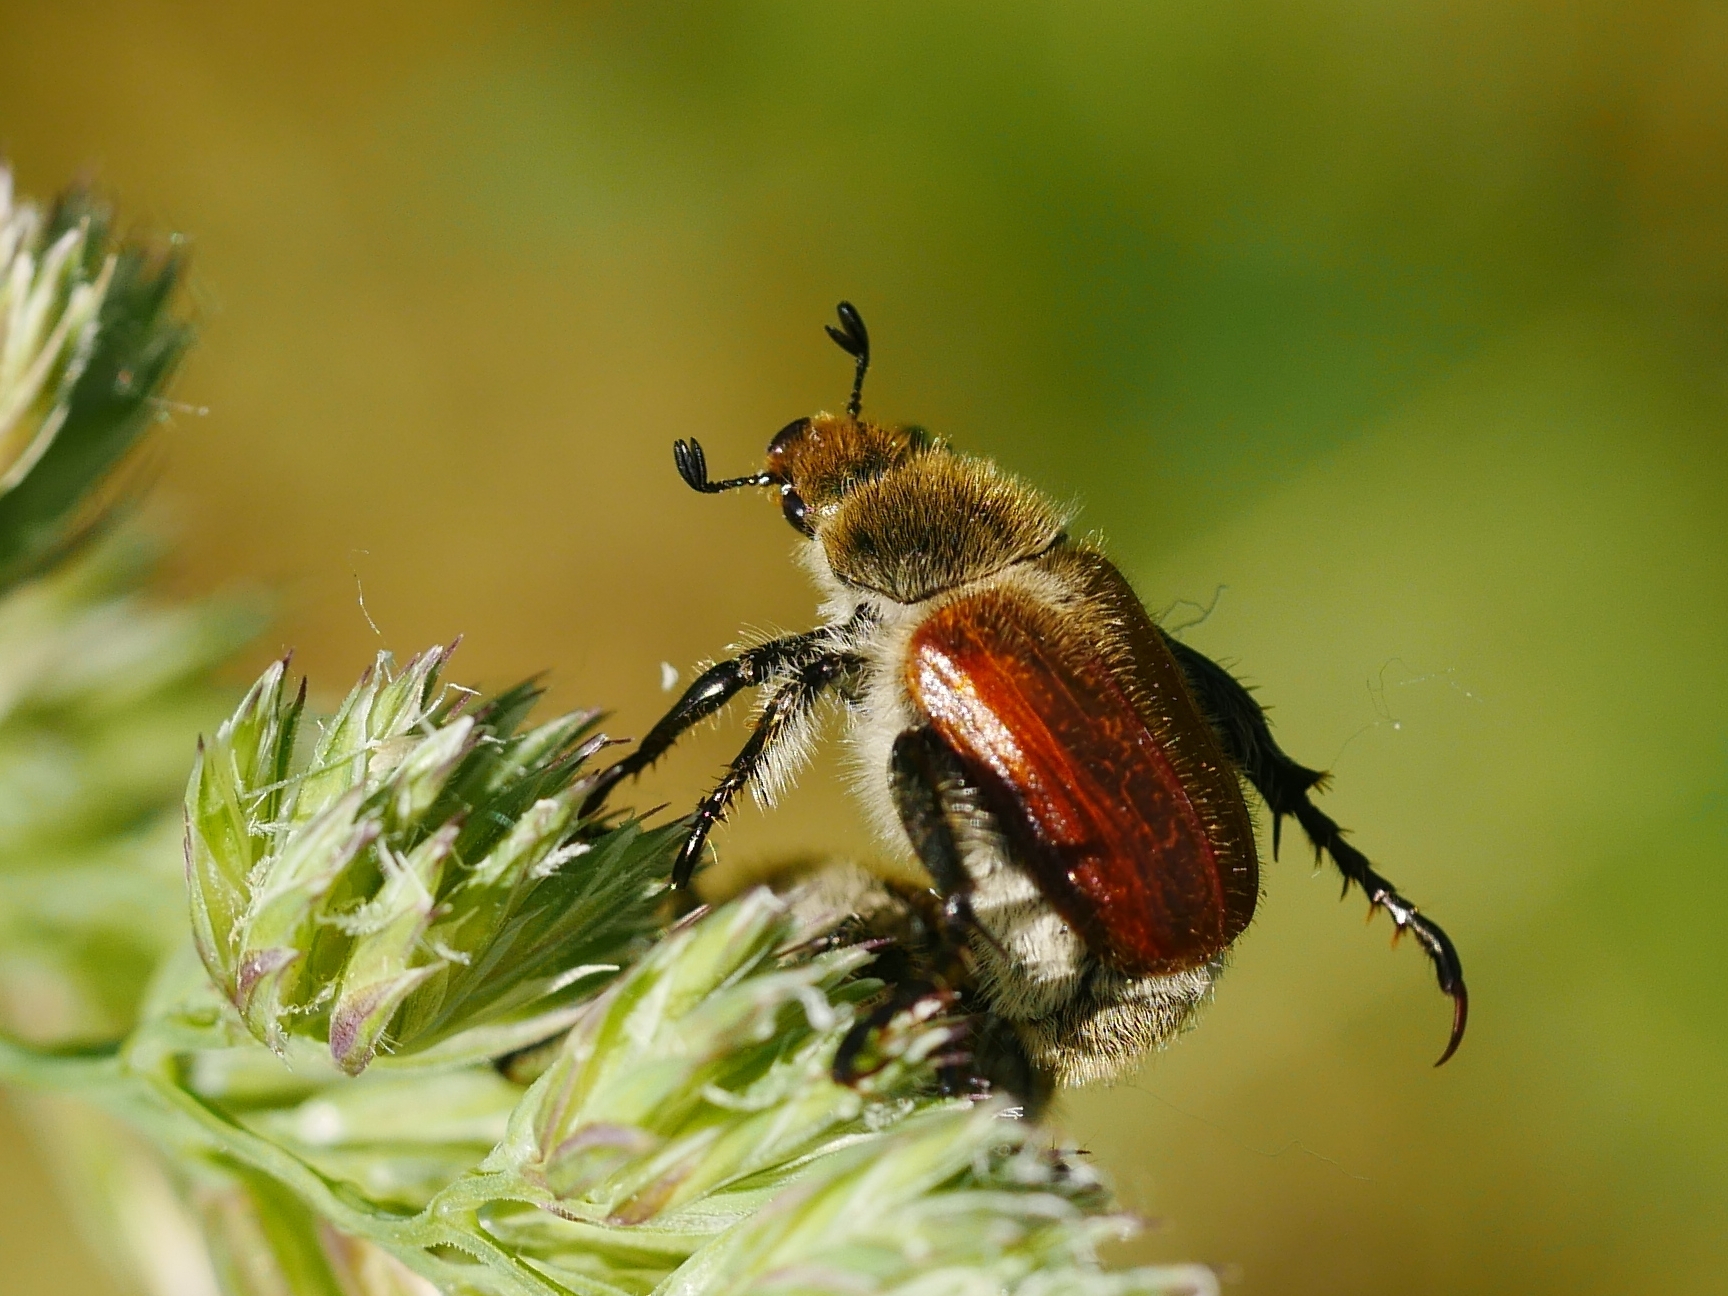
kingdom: Animalia
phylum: Arthropoda
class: Insecta
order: Coleoptera
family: Scarabaeidae
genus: Chaetopteroplia
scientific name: Chaetopteroplia segetum
